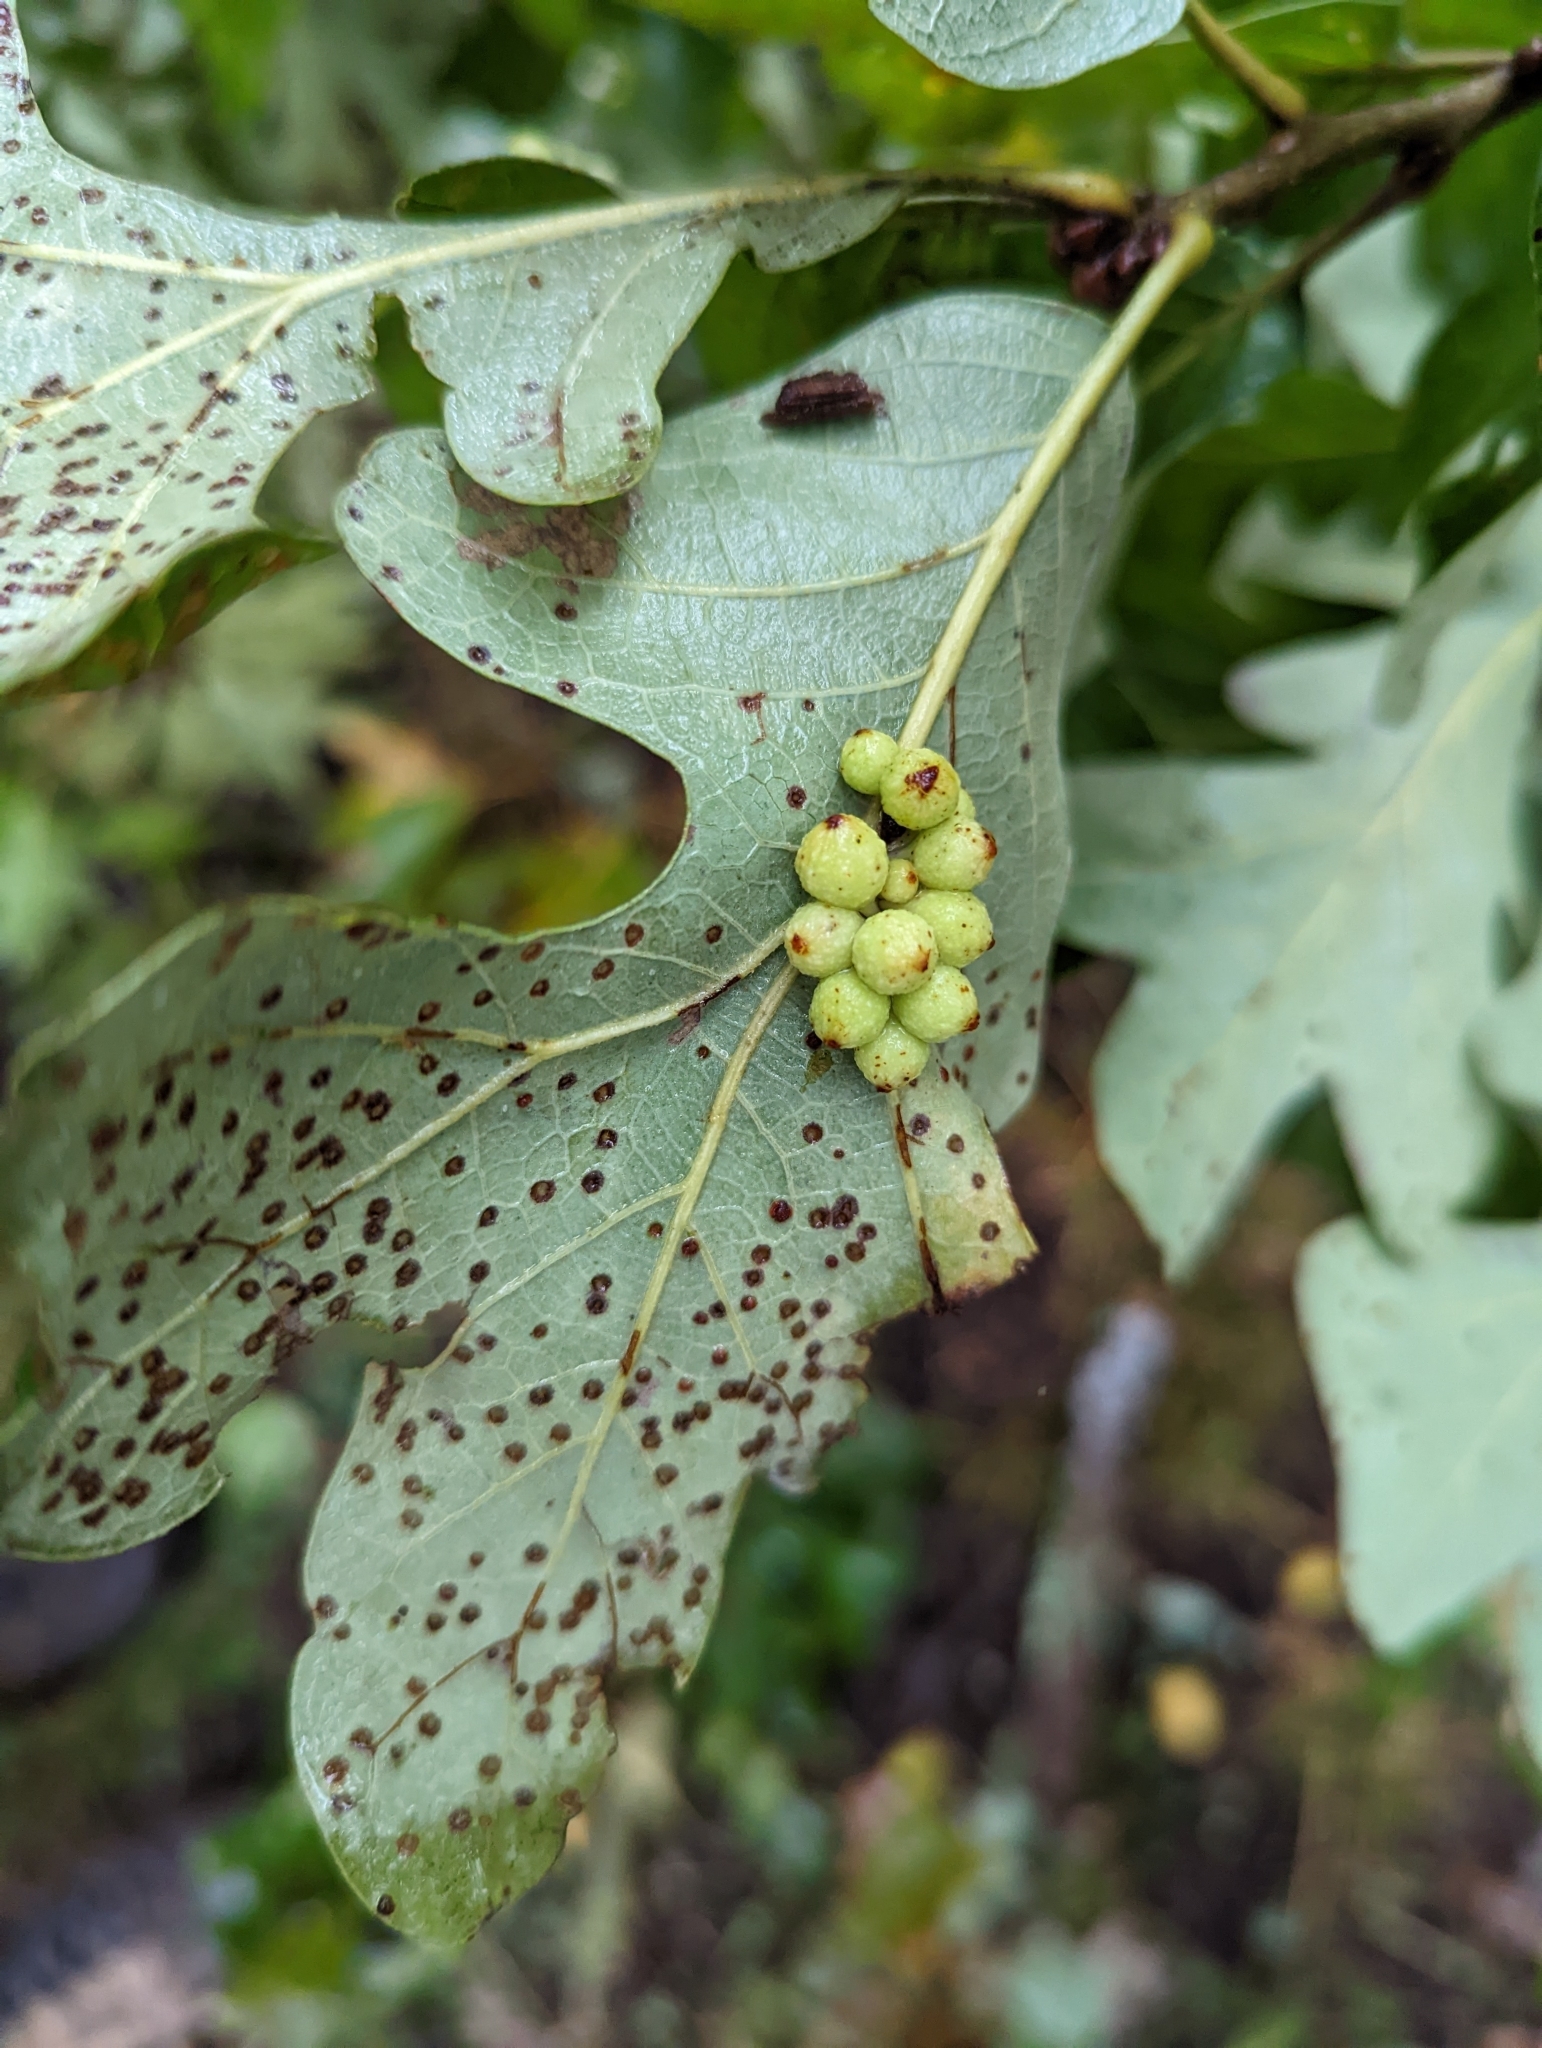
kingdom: Animalia
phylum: Arthropoda
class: Insecta
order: Hymenoptera
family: Cynipidae
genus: Andricus
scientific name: Andricus
